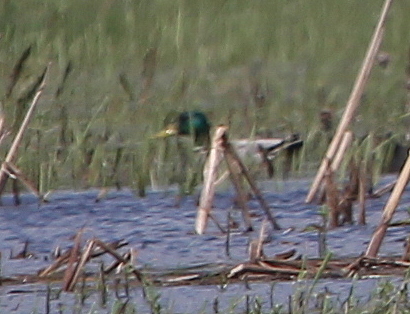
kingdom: Animalia
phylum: Chordata
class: Aves
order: Anseriformes
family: Anatidae
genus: Anas
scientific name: Anas platyrhynchos
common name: Mallard
